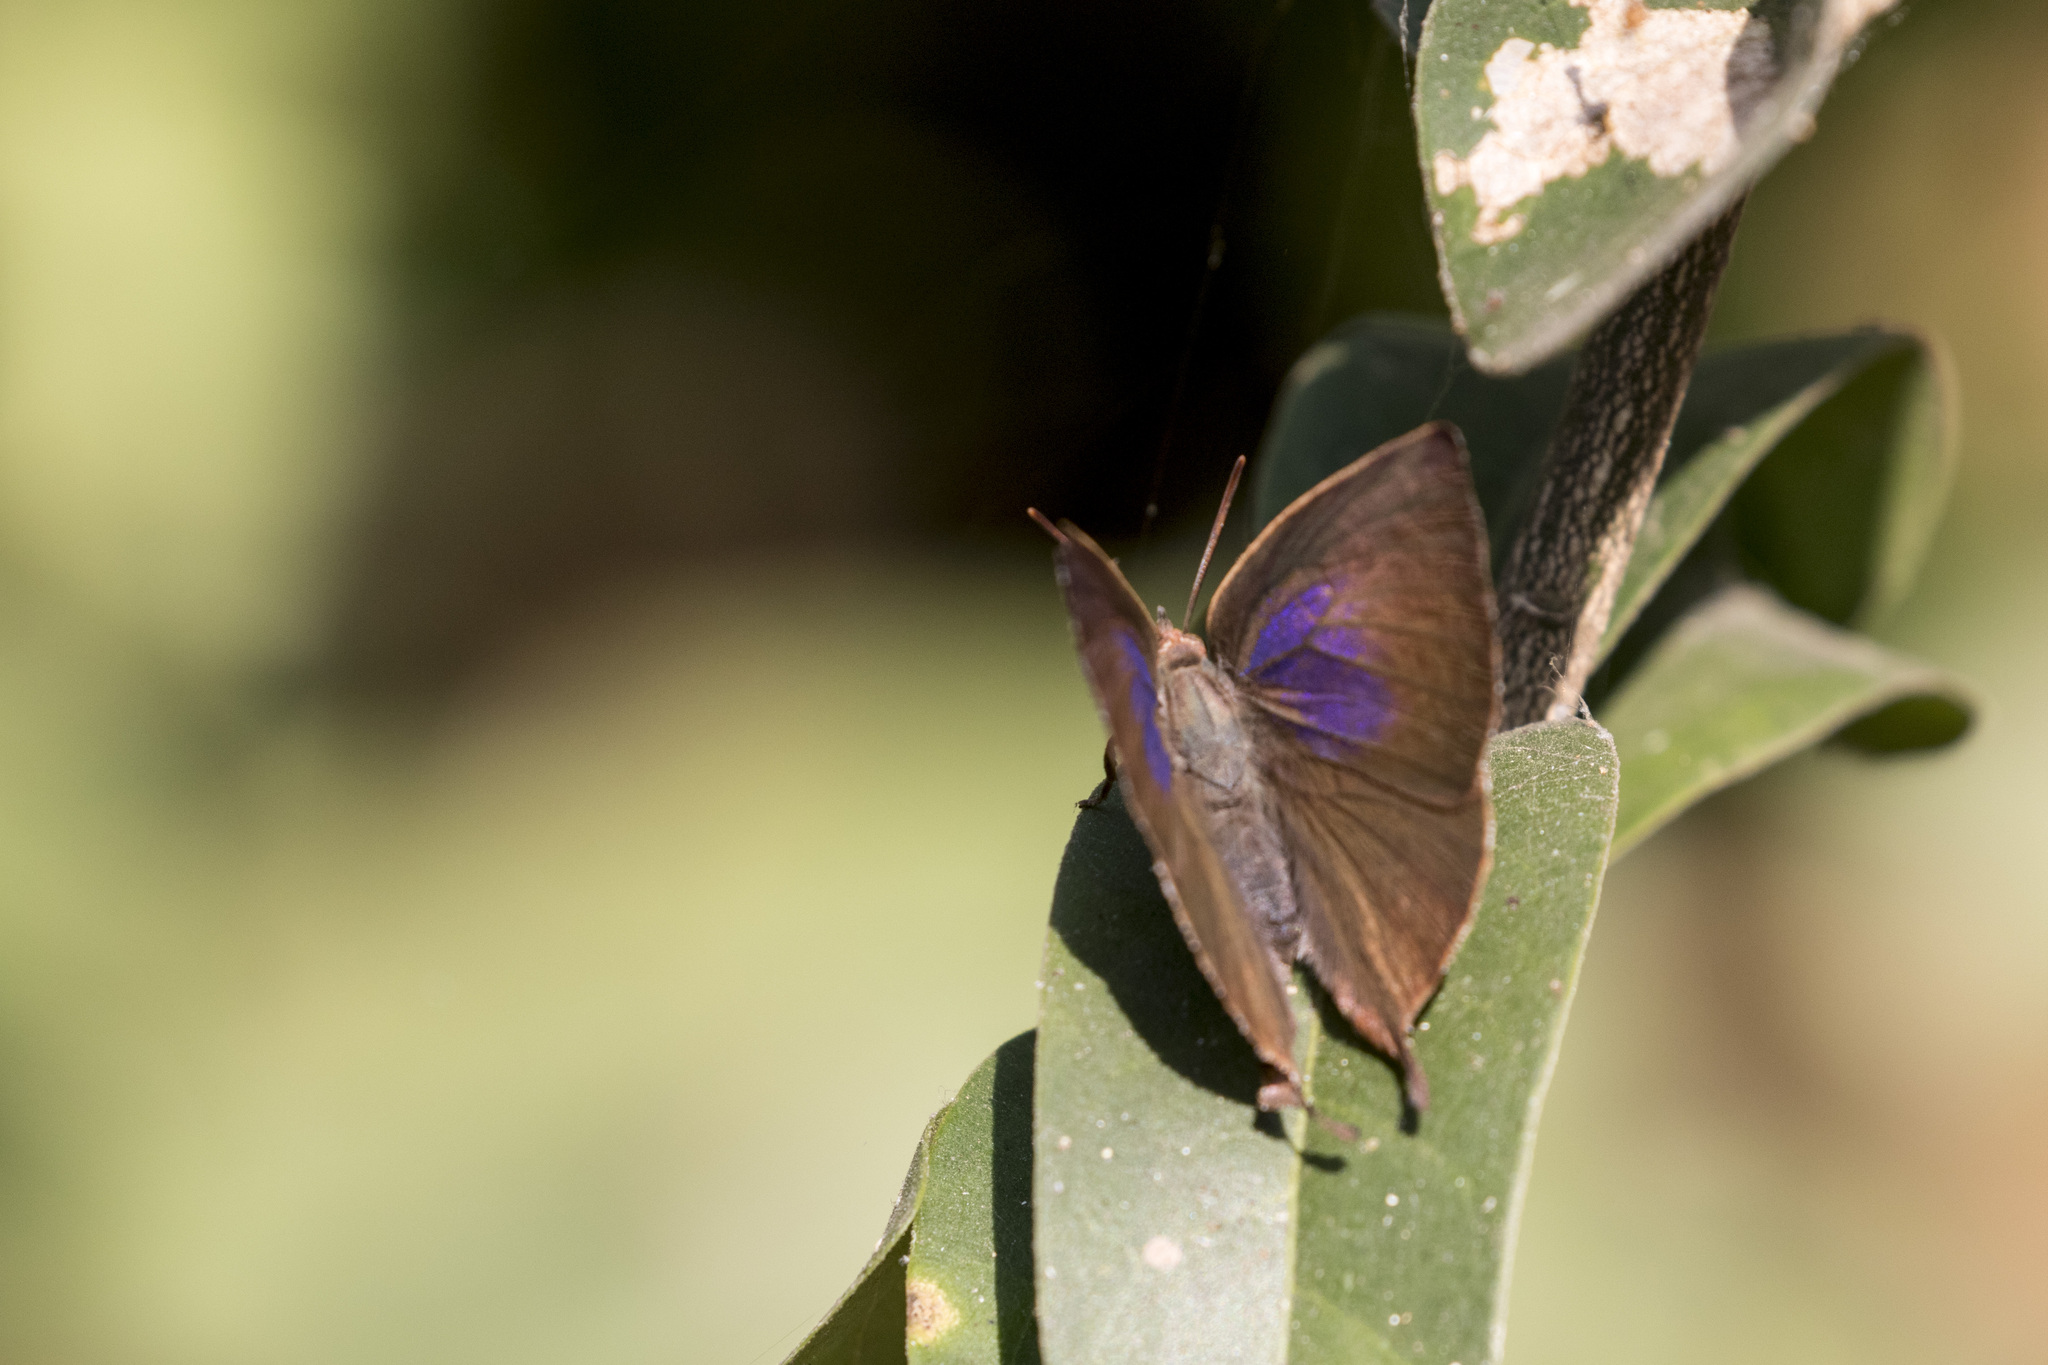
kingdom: Animalia
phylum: Arthropoda
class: Insecta
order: Lepidoptera
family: Lycaenidae
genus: Amblypodia
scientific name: Amblypodia anita
